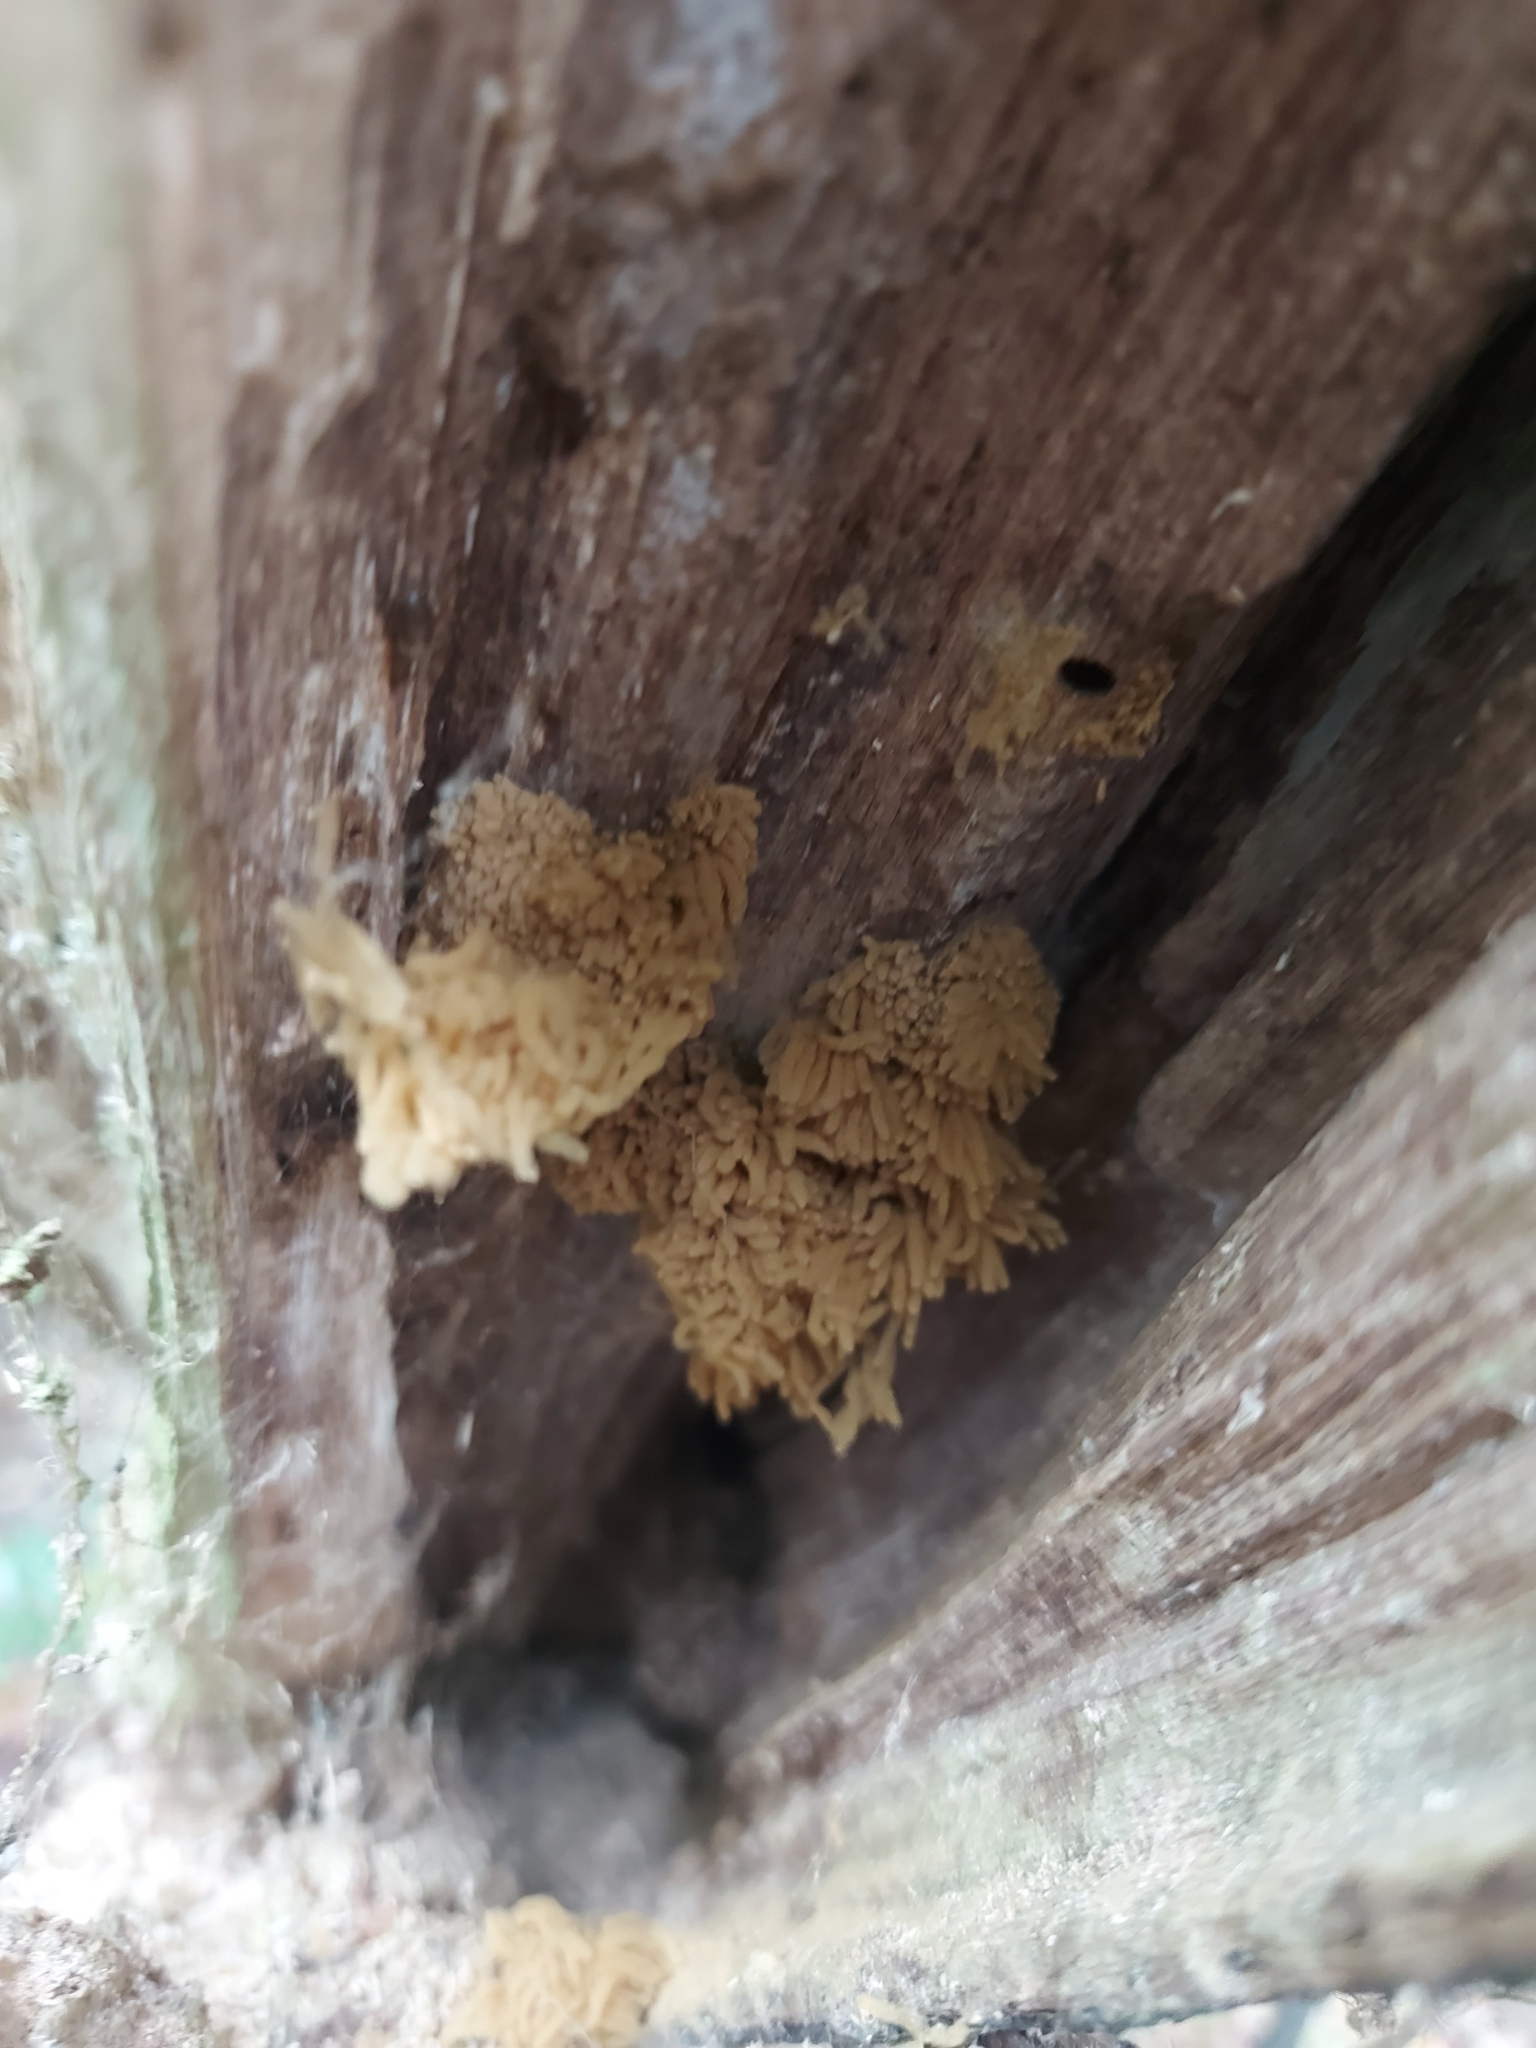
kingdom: Protozoa
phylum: Mycetozoa
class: Myxomycetes
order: Trichiales
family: Arcyriaceae
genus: Arcyria
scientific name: Arcyria obvelata
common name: Yellow carnival candy slime
